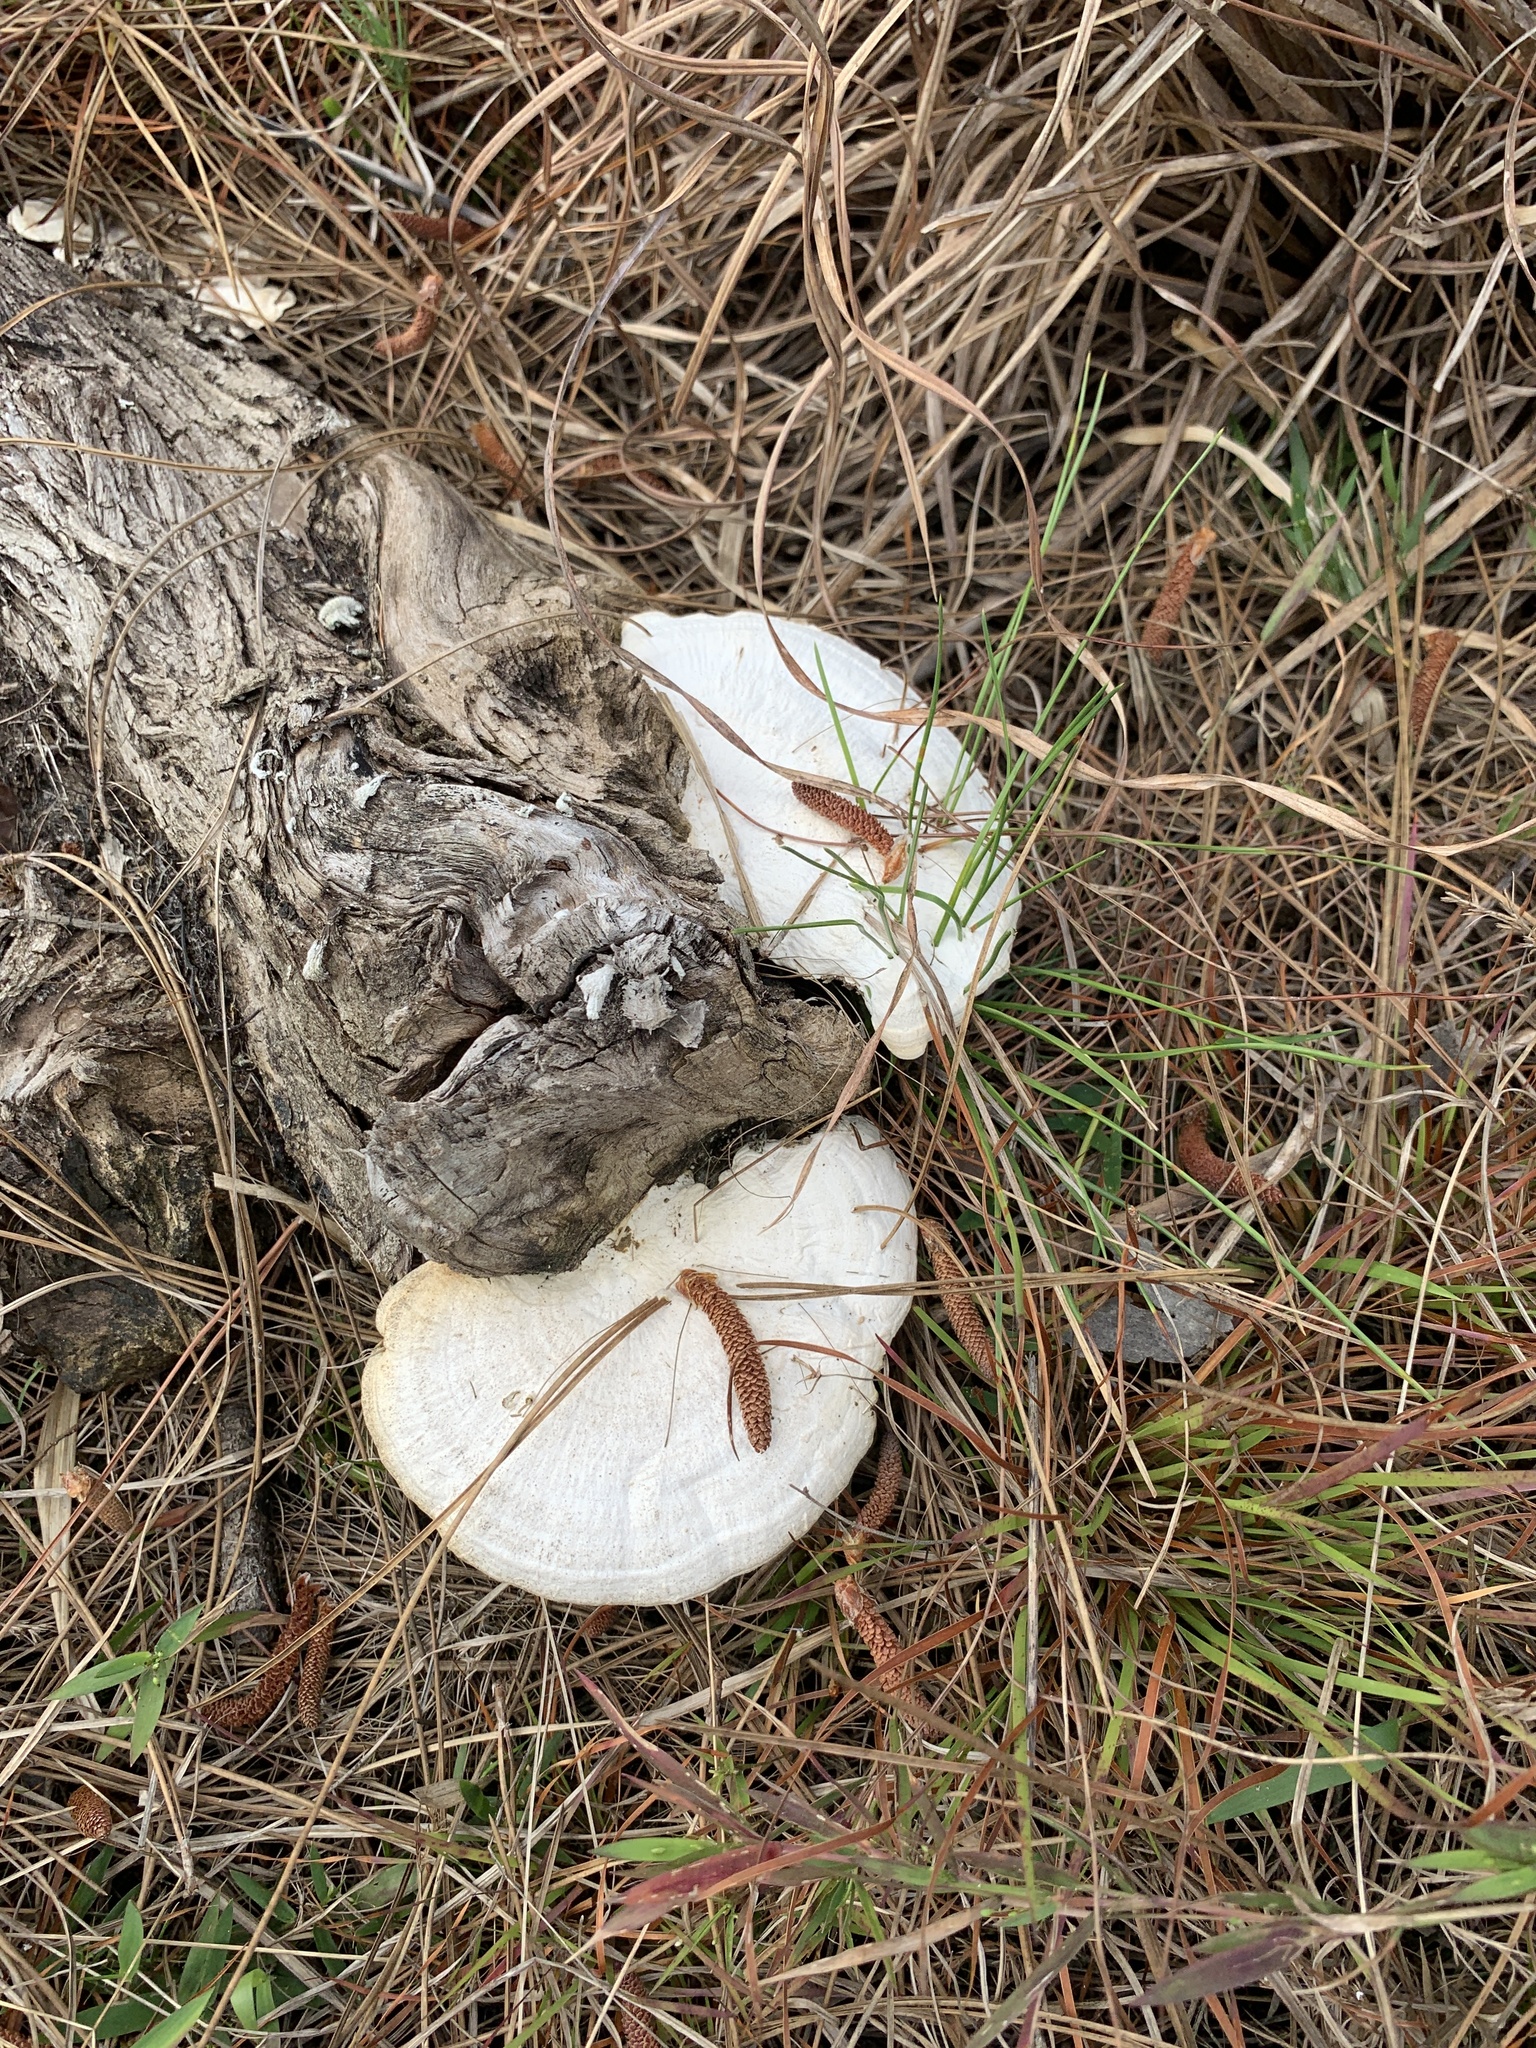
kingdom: Fungi
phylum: Basidiomycota
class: Agaricomycetes
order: Polyporales
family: Polyporaceae
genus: Trametes
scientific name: Trametes lactinea
